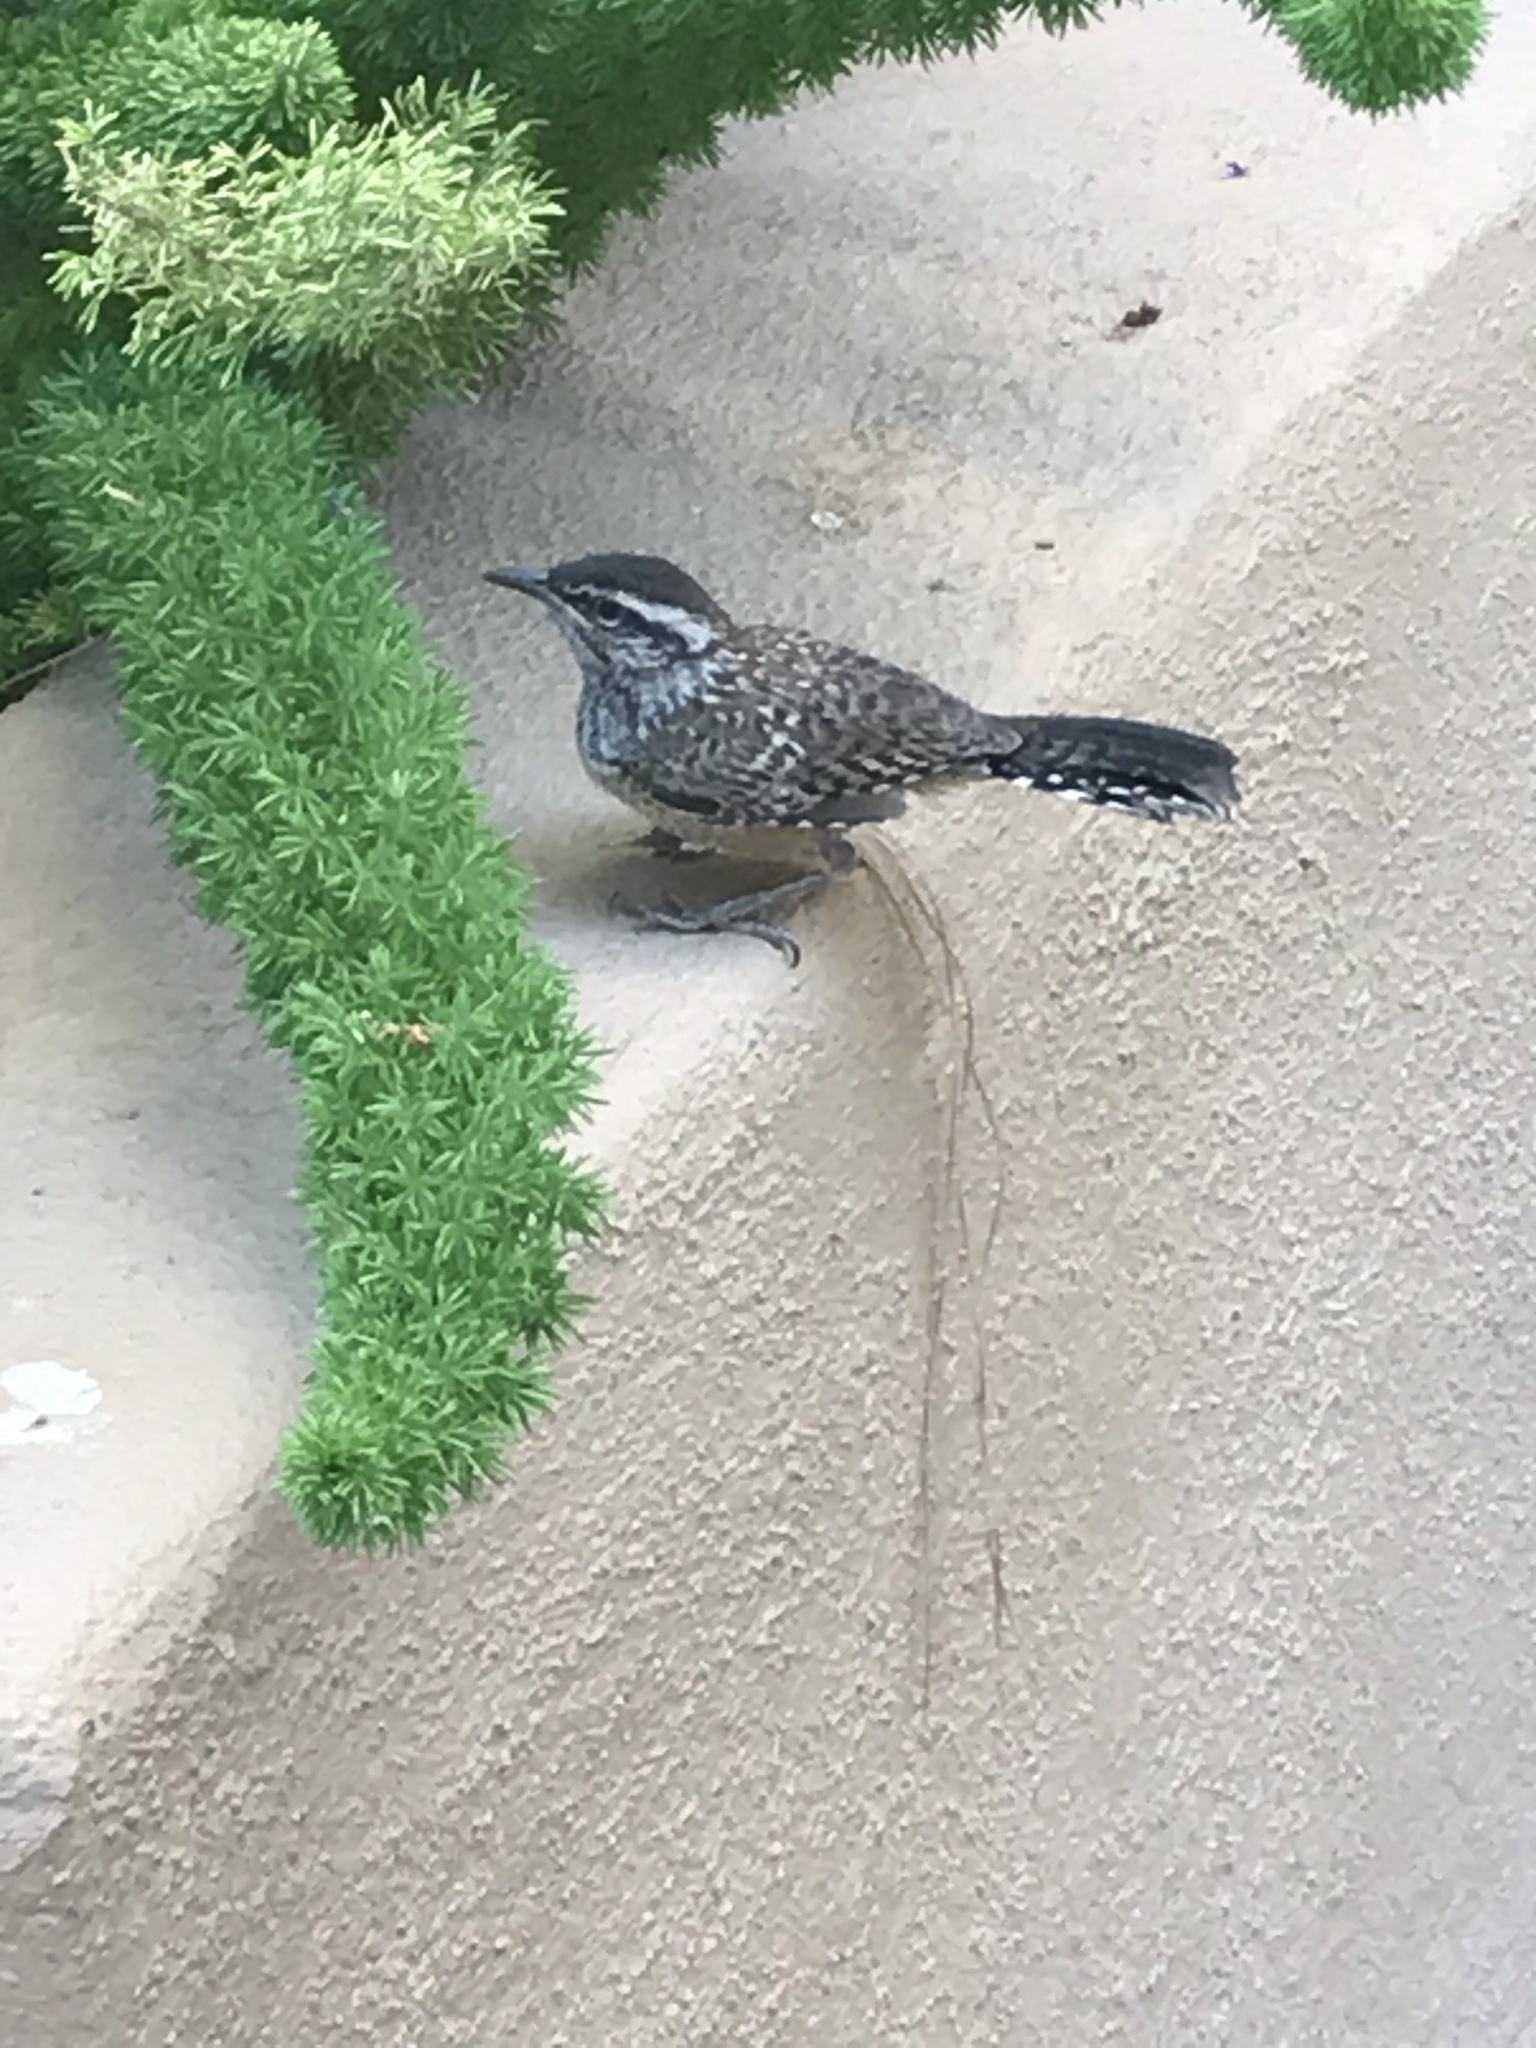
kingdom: Animalia
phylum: Chordata
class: Aves
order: Passeriformes
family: Troglodytidae
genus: Campylorhynchus
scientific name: Campylorhynchus brunneicapillus
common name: Cactus wren
